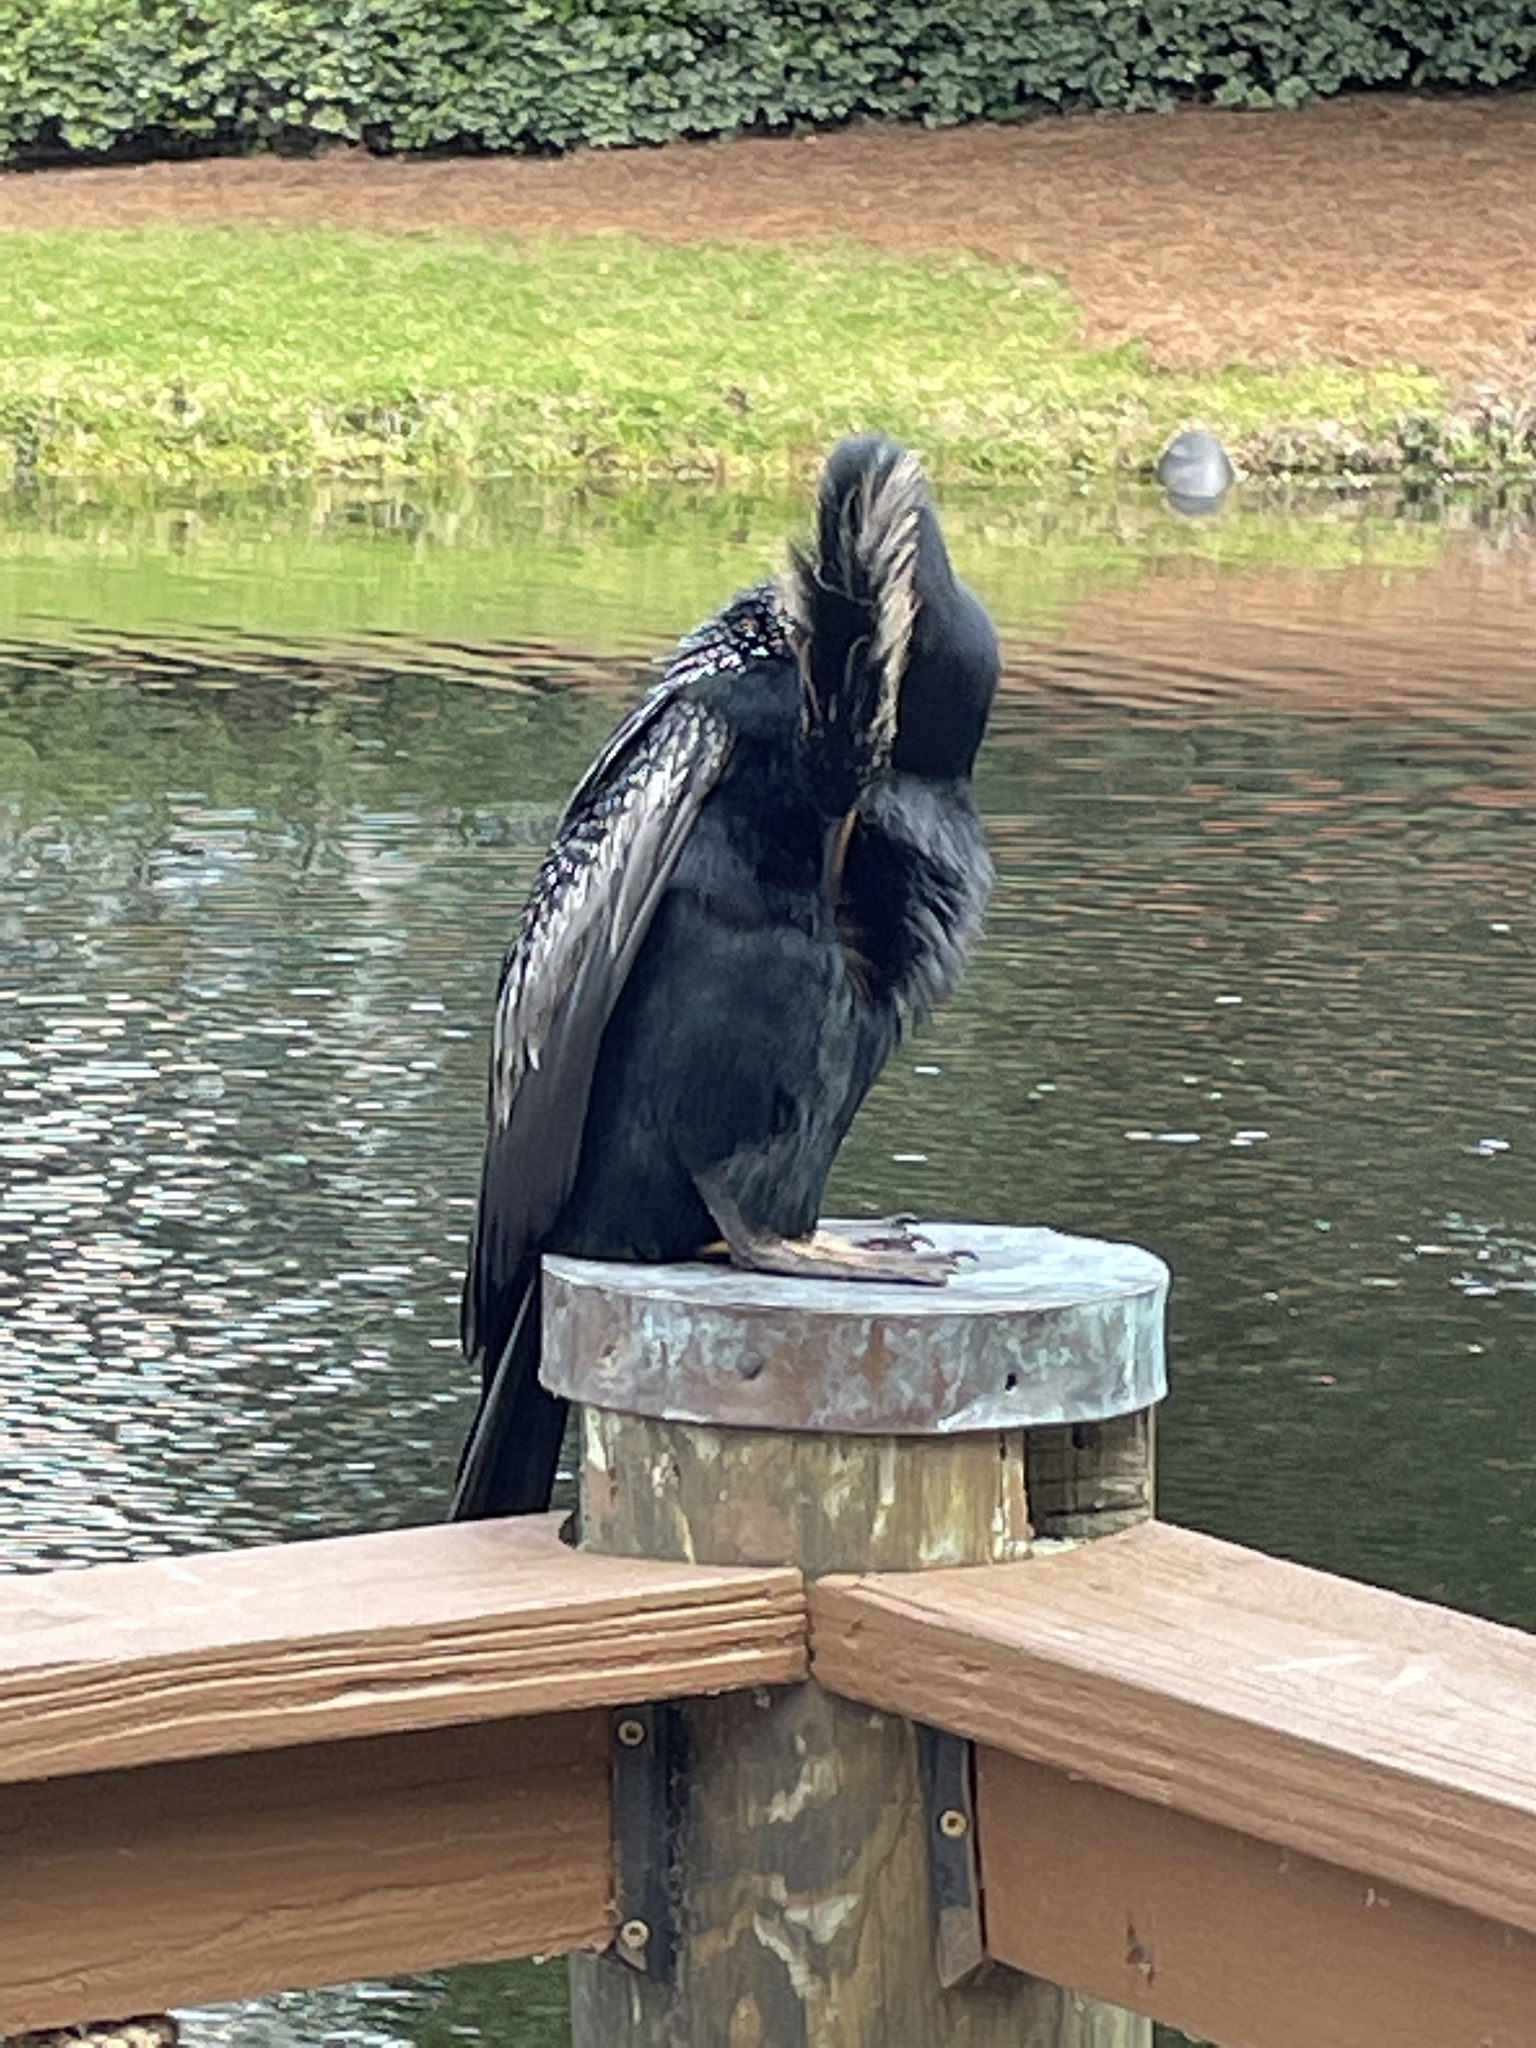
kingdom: Animalia
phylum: Chordata
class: Aves
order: Suliformes
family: Anhingidae
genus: Anhinga
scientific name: Anhinga anhinga
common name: Anhinga
